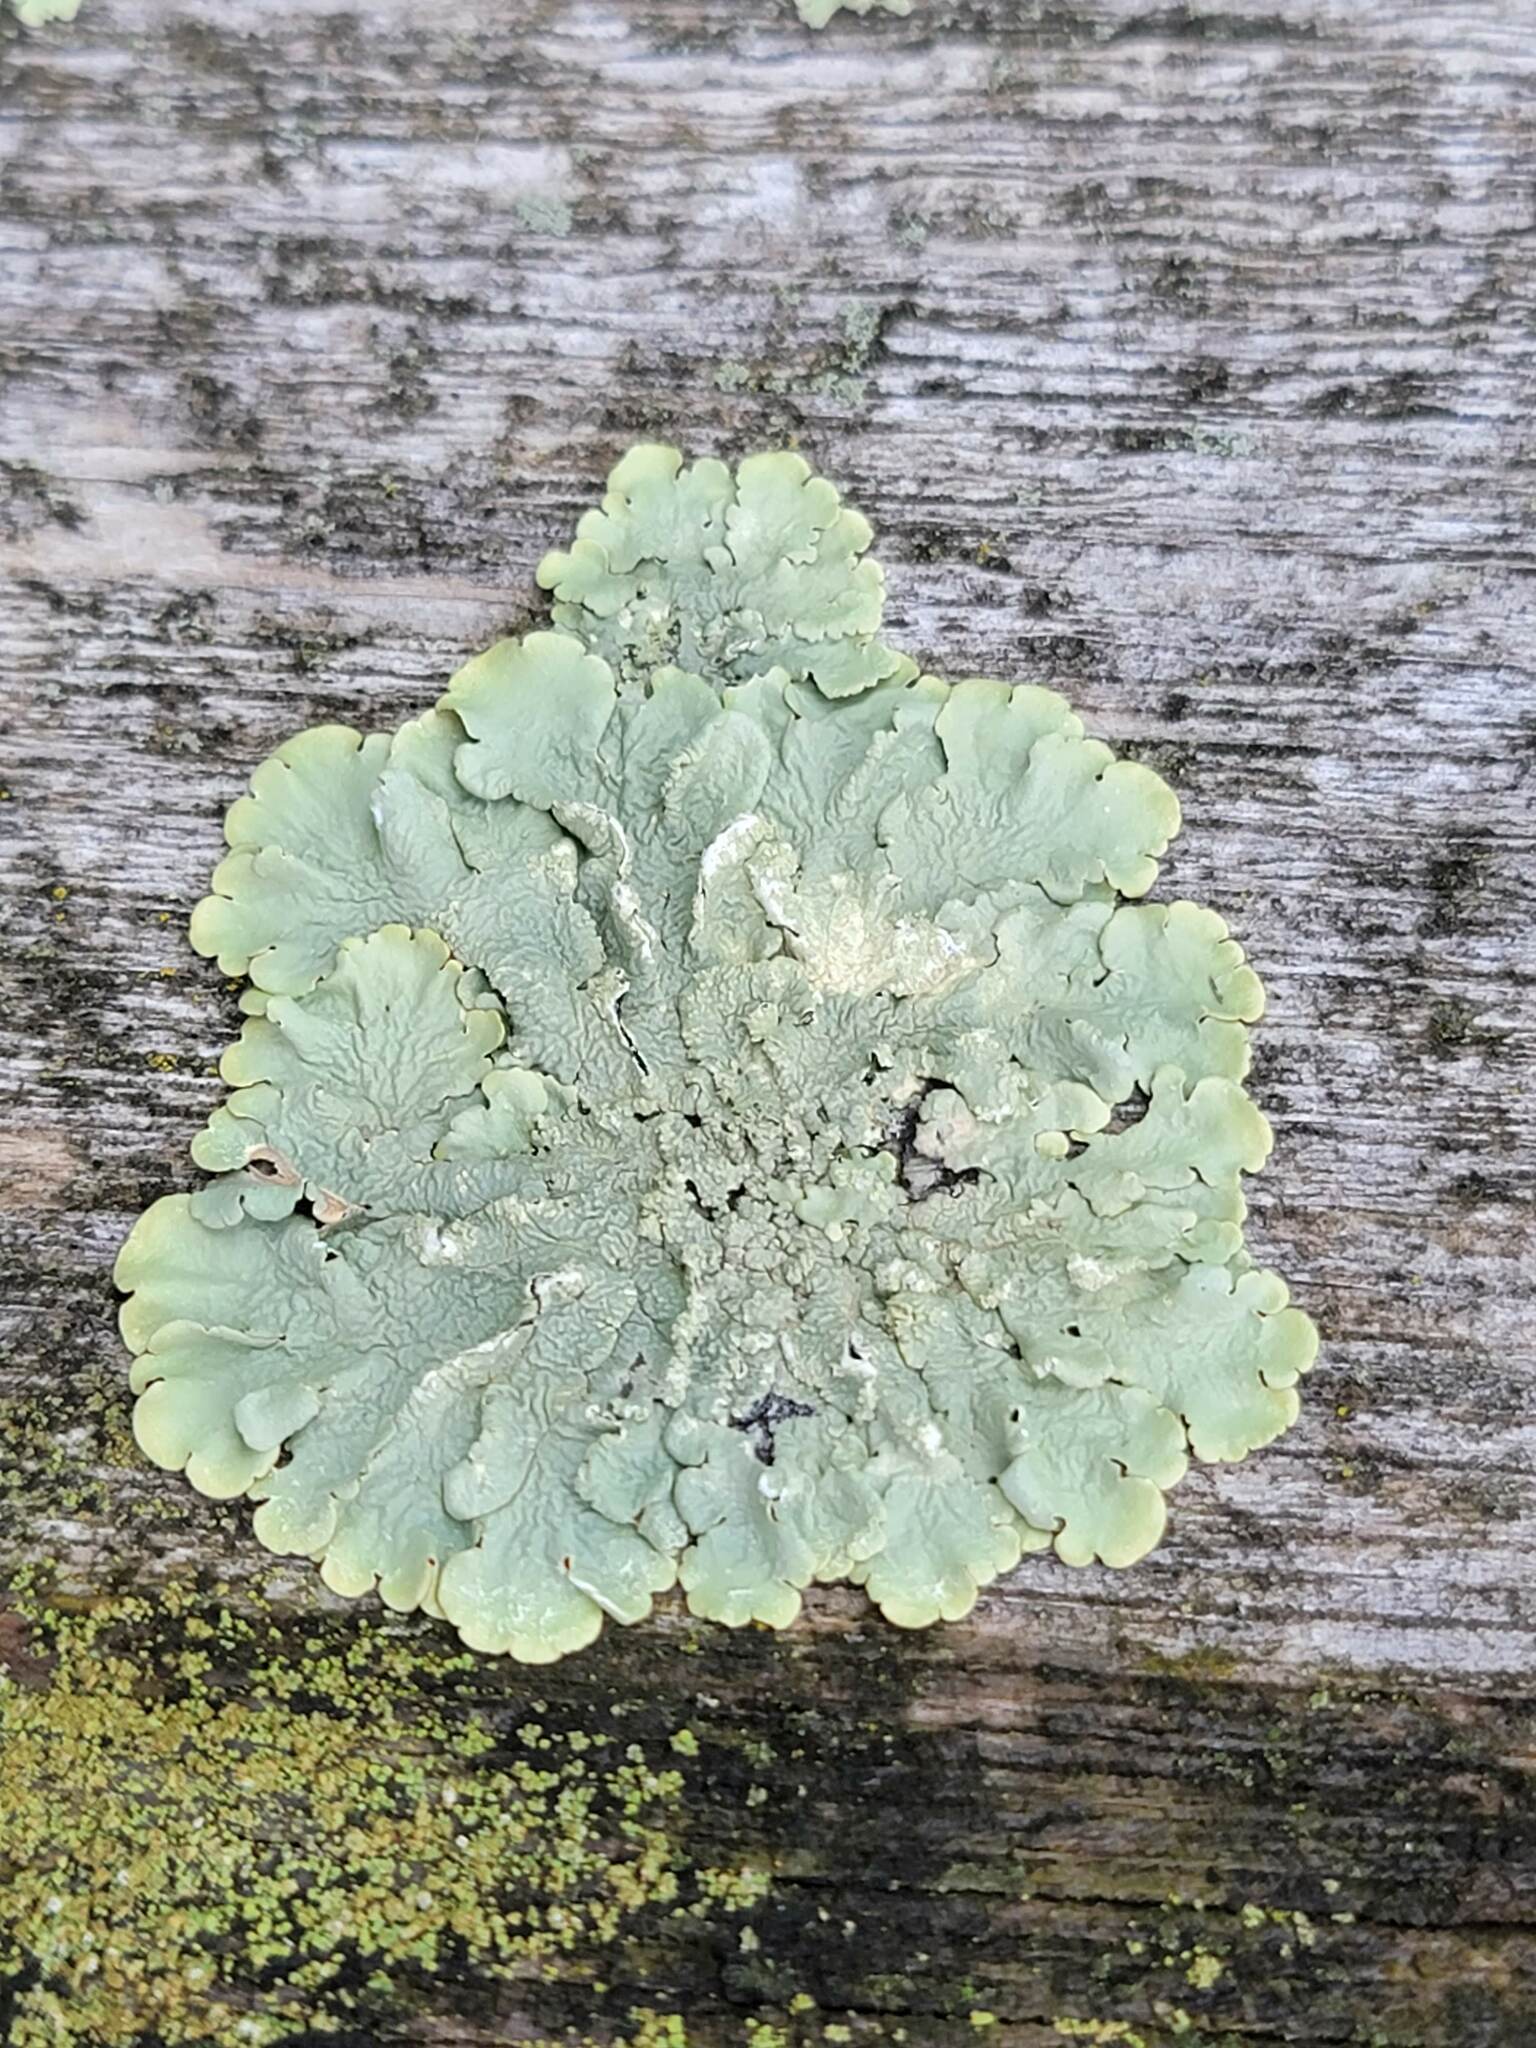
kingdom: Fungi
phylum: Ascomycota
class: Lecanoromycetes
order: Lecanorales
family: Parmeliaceae
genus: Flavoparmelia
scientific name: Flavoparmelia caperata
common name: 40-mile per hour lichen
